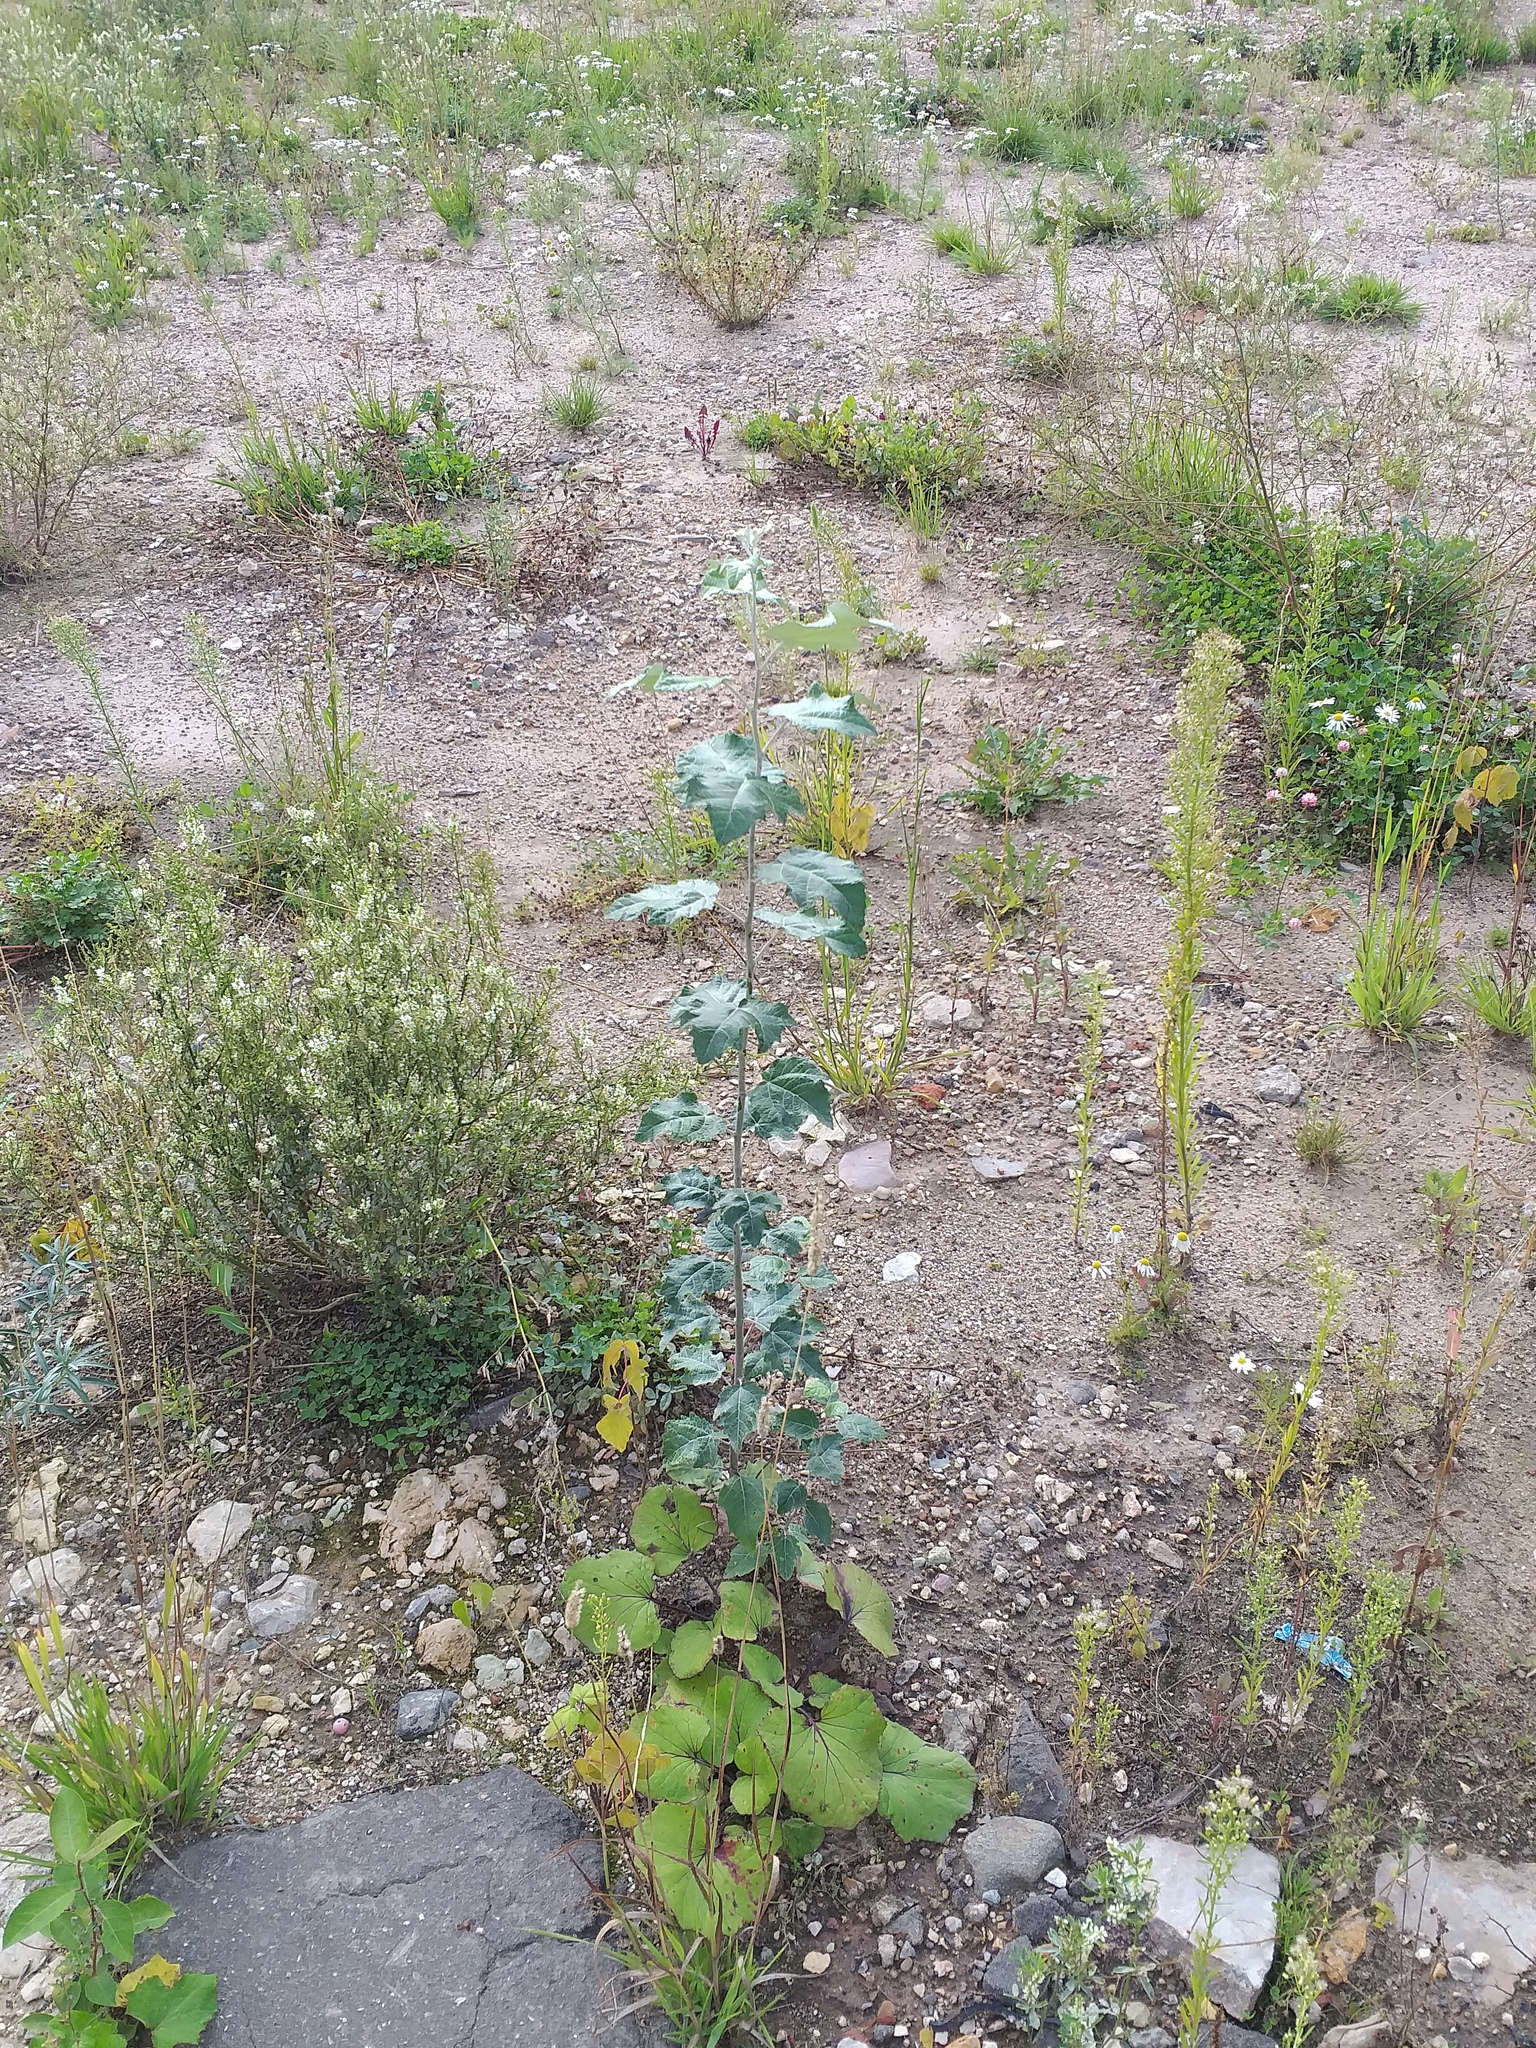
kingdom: Plantae
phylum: Tracheophyta
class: Magnoliopsida
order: Malpighiales
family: Salicaceae
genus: Populus
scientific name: Populus alba
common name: White poplar
